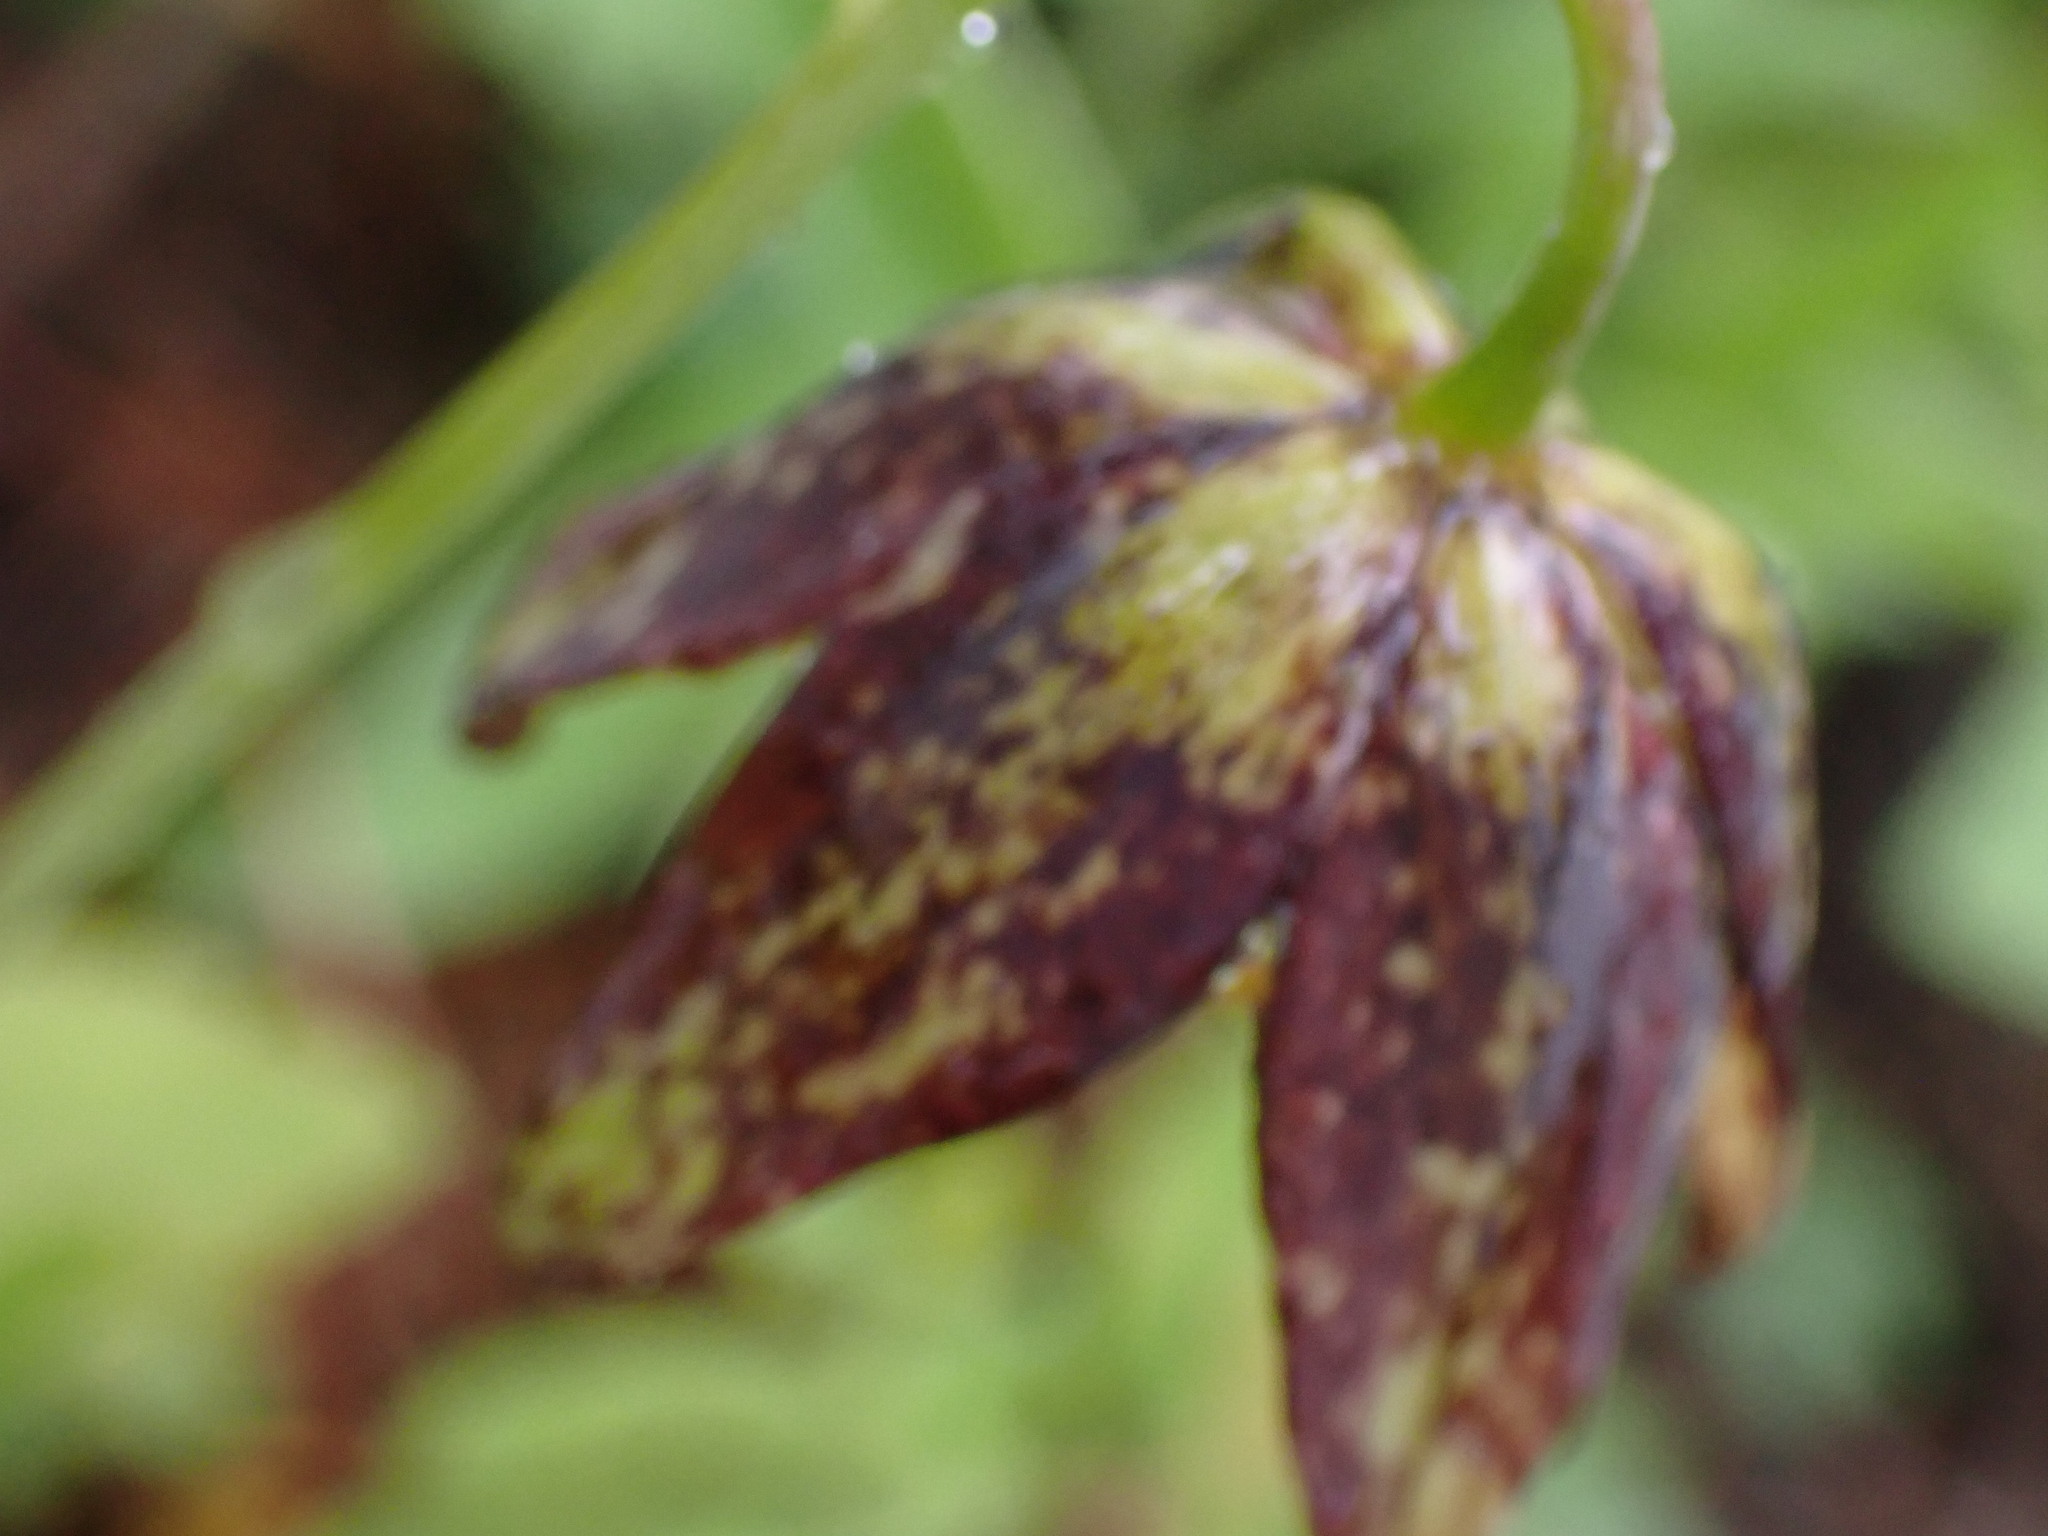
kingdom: Plantae
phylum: Tracheophyta
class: Liliopsida
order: Liliales
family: Liliaceae
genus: Fritillaria
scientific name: Fritillaria affinis
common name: Ojai fritillary
